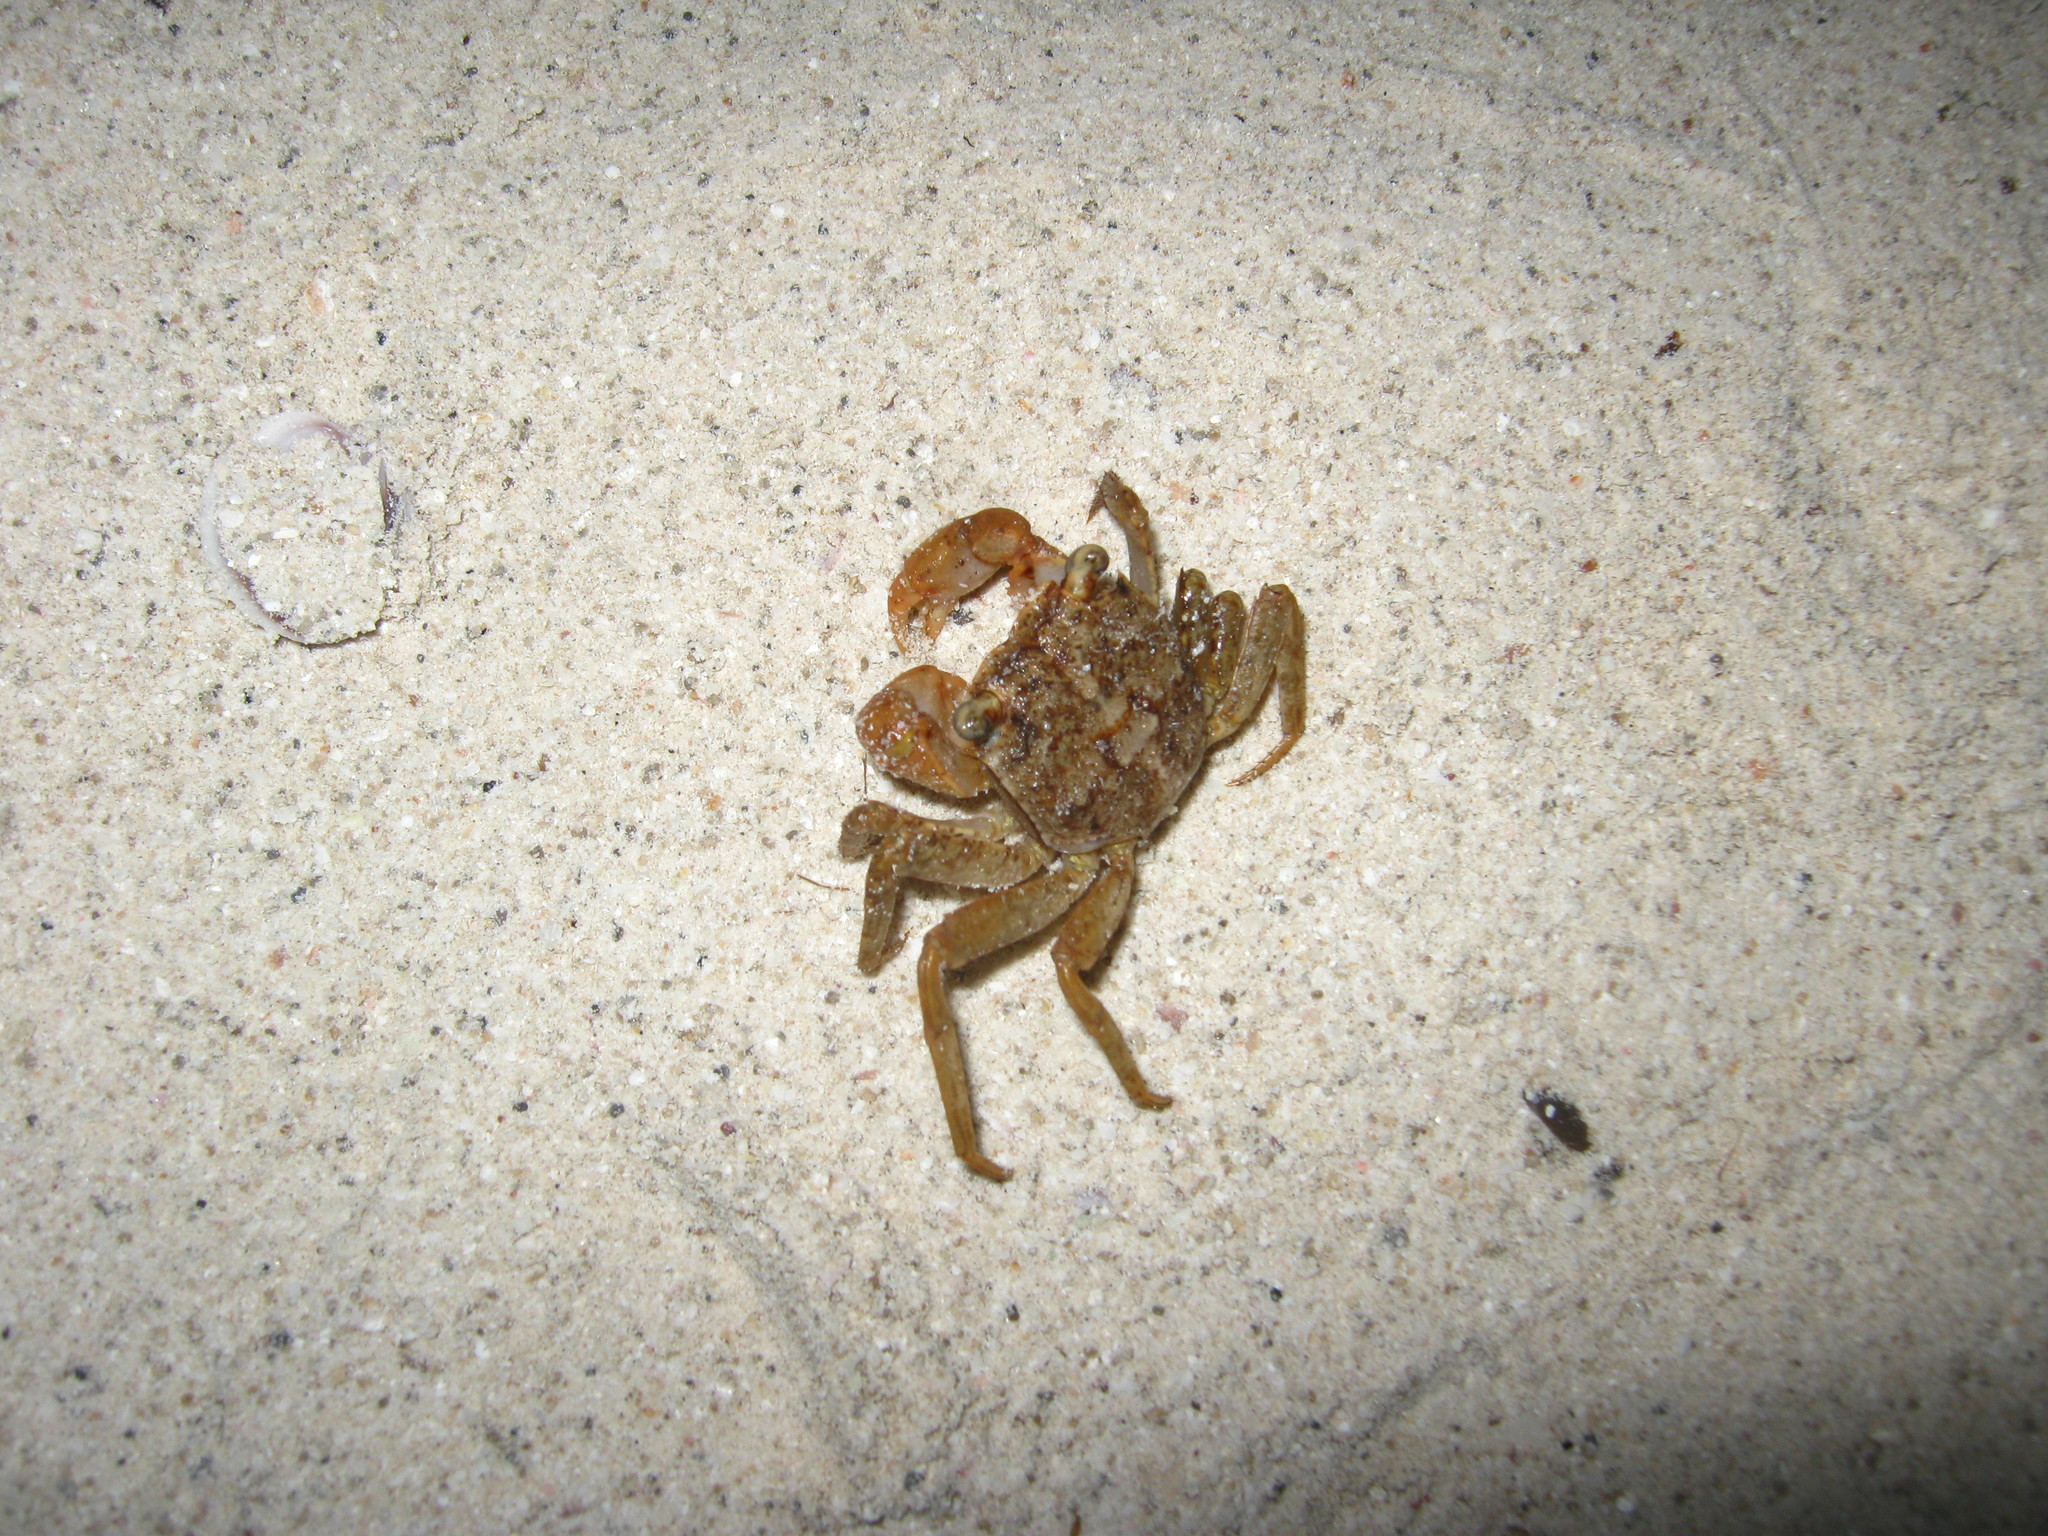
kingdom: Animalia
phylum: Arthropoda
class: Malacostraca
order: Decapoda
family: Ocypodidae
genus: Ocypode
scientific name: Ocypode quadrata
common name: Ghost crab
